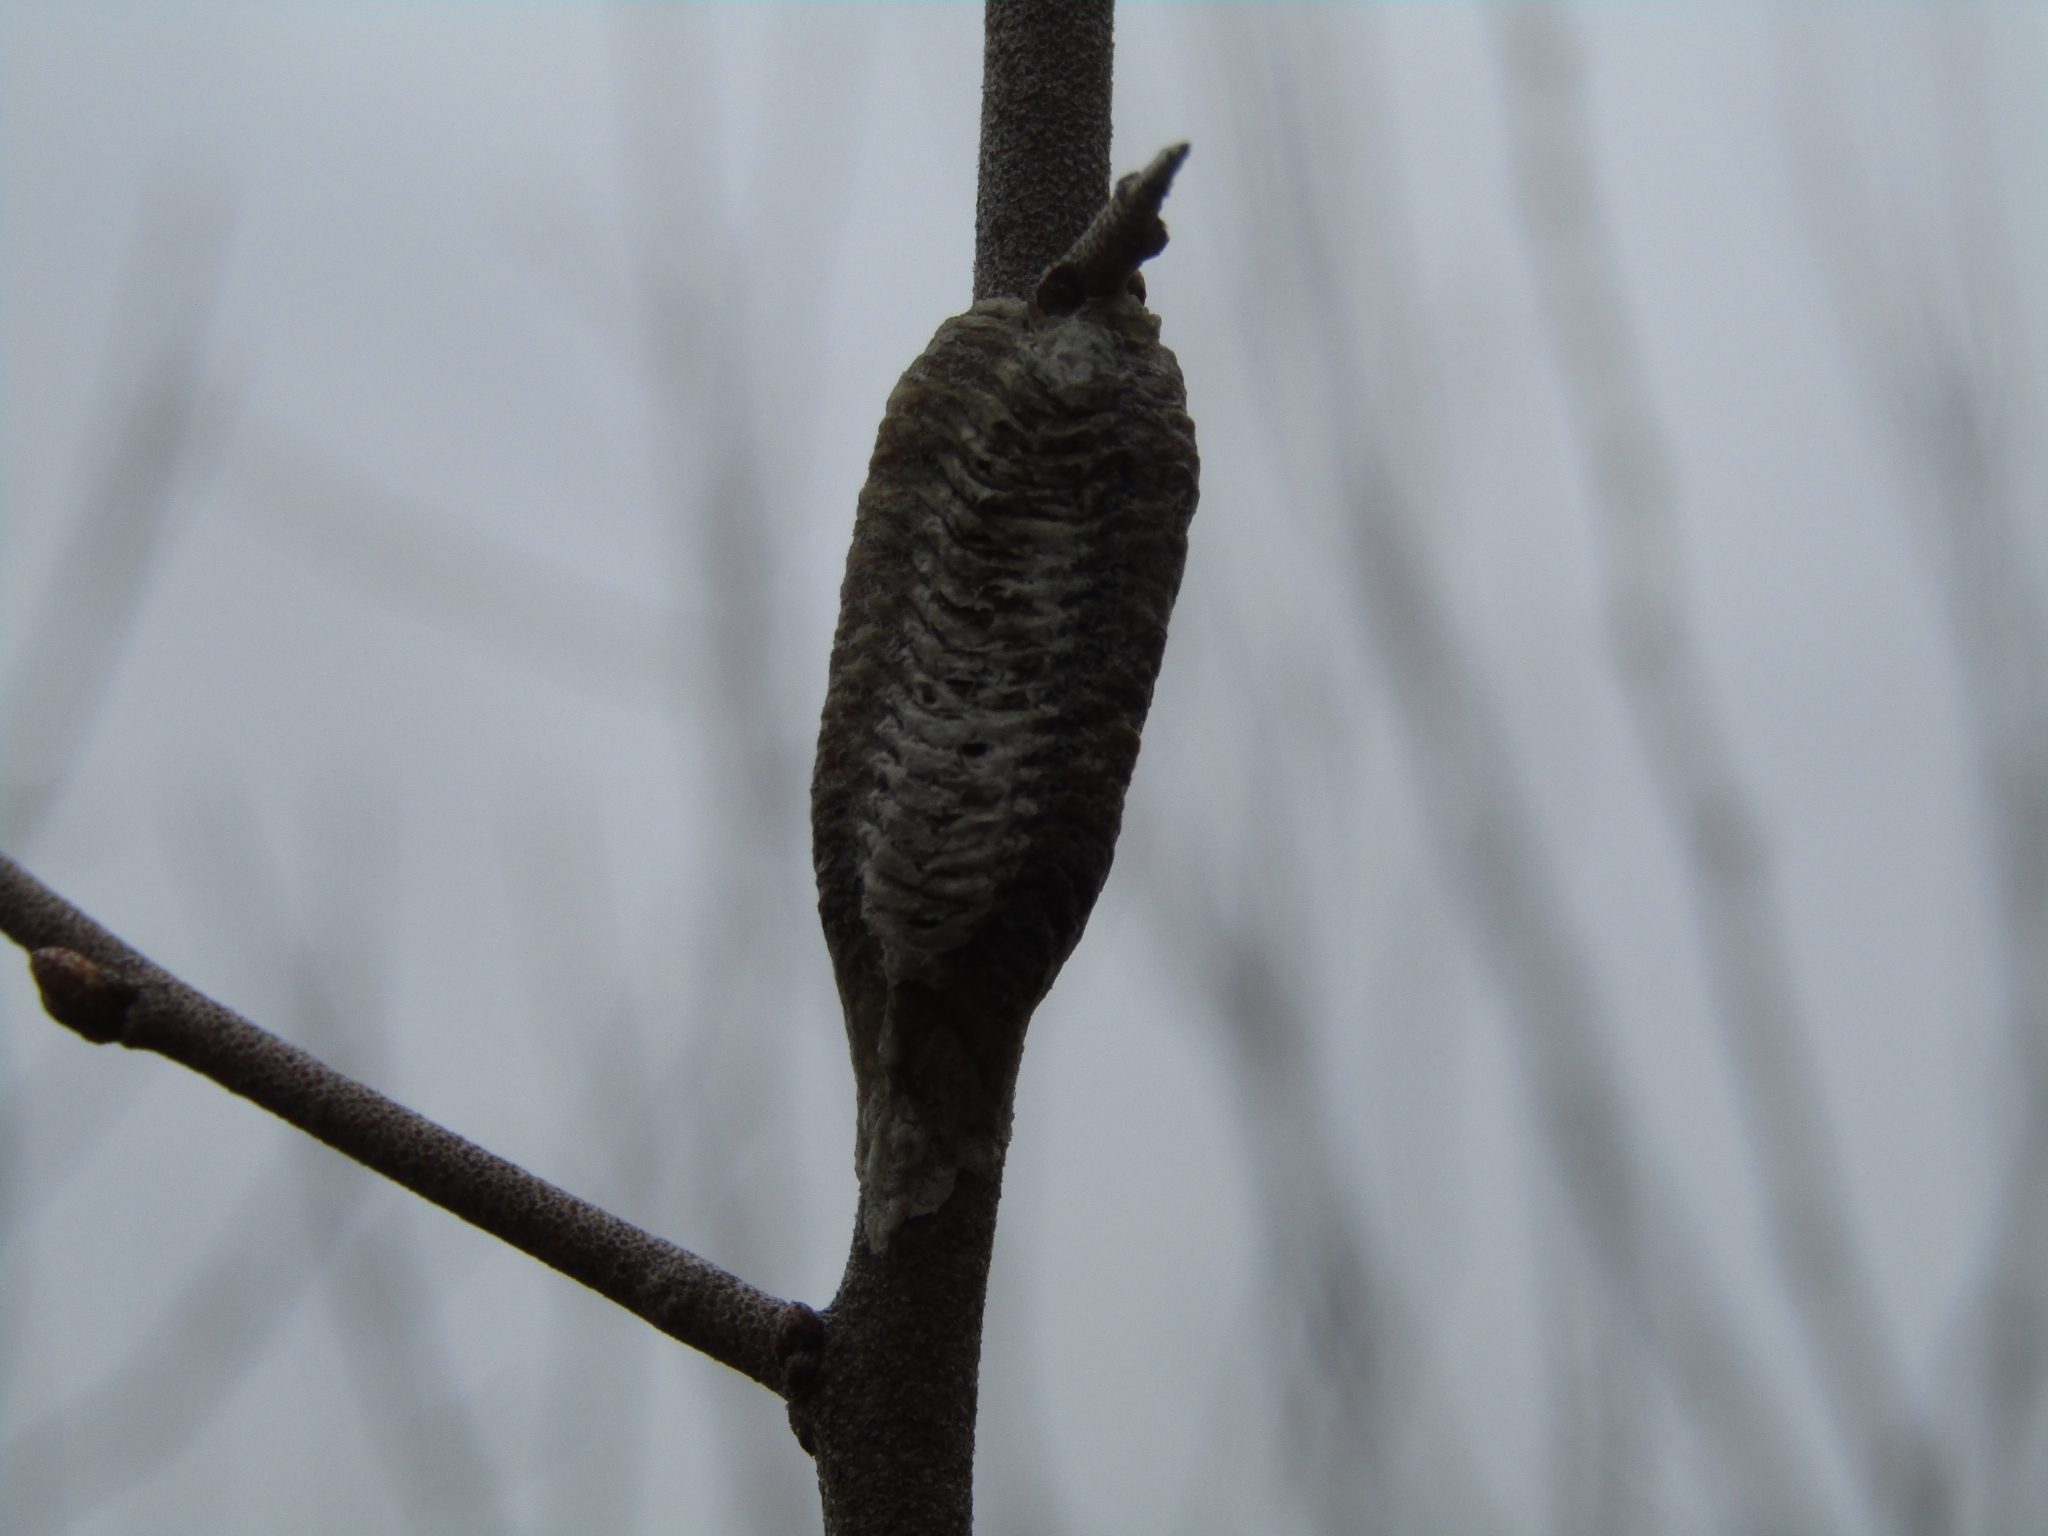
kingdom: Animalia
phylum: Arthropoda
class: Insecta
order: Mantodea
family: Mantidae
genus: Stagmomantis
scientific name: Stagmomantis carolina
